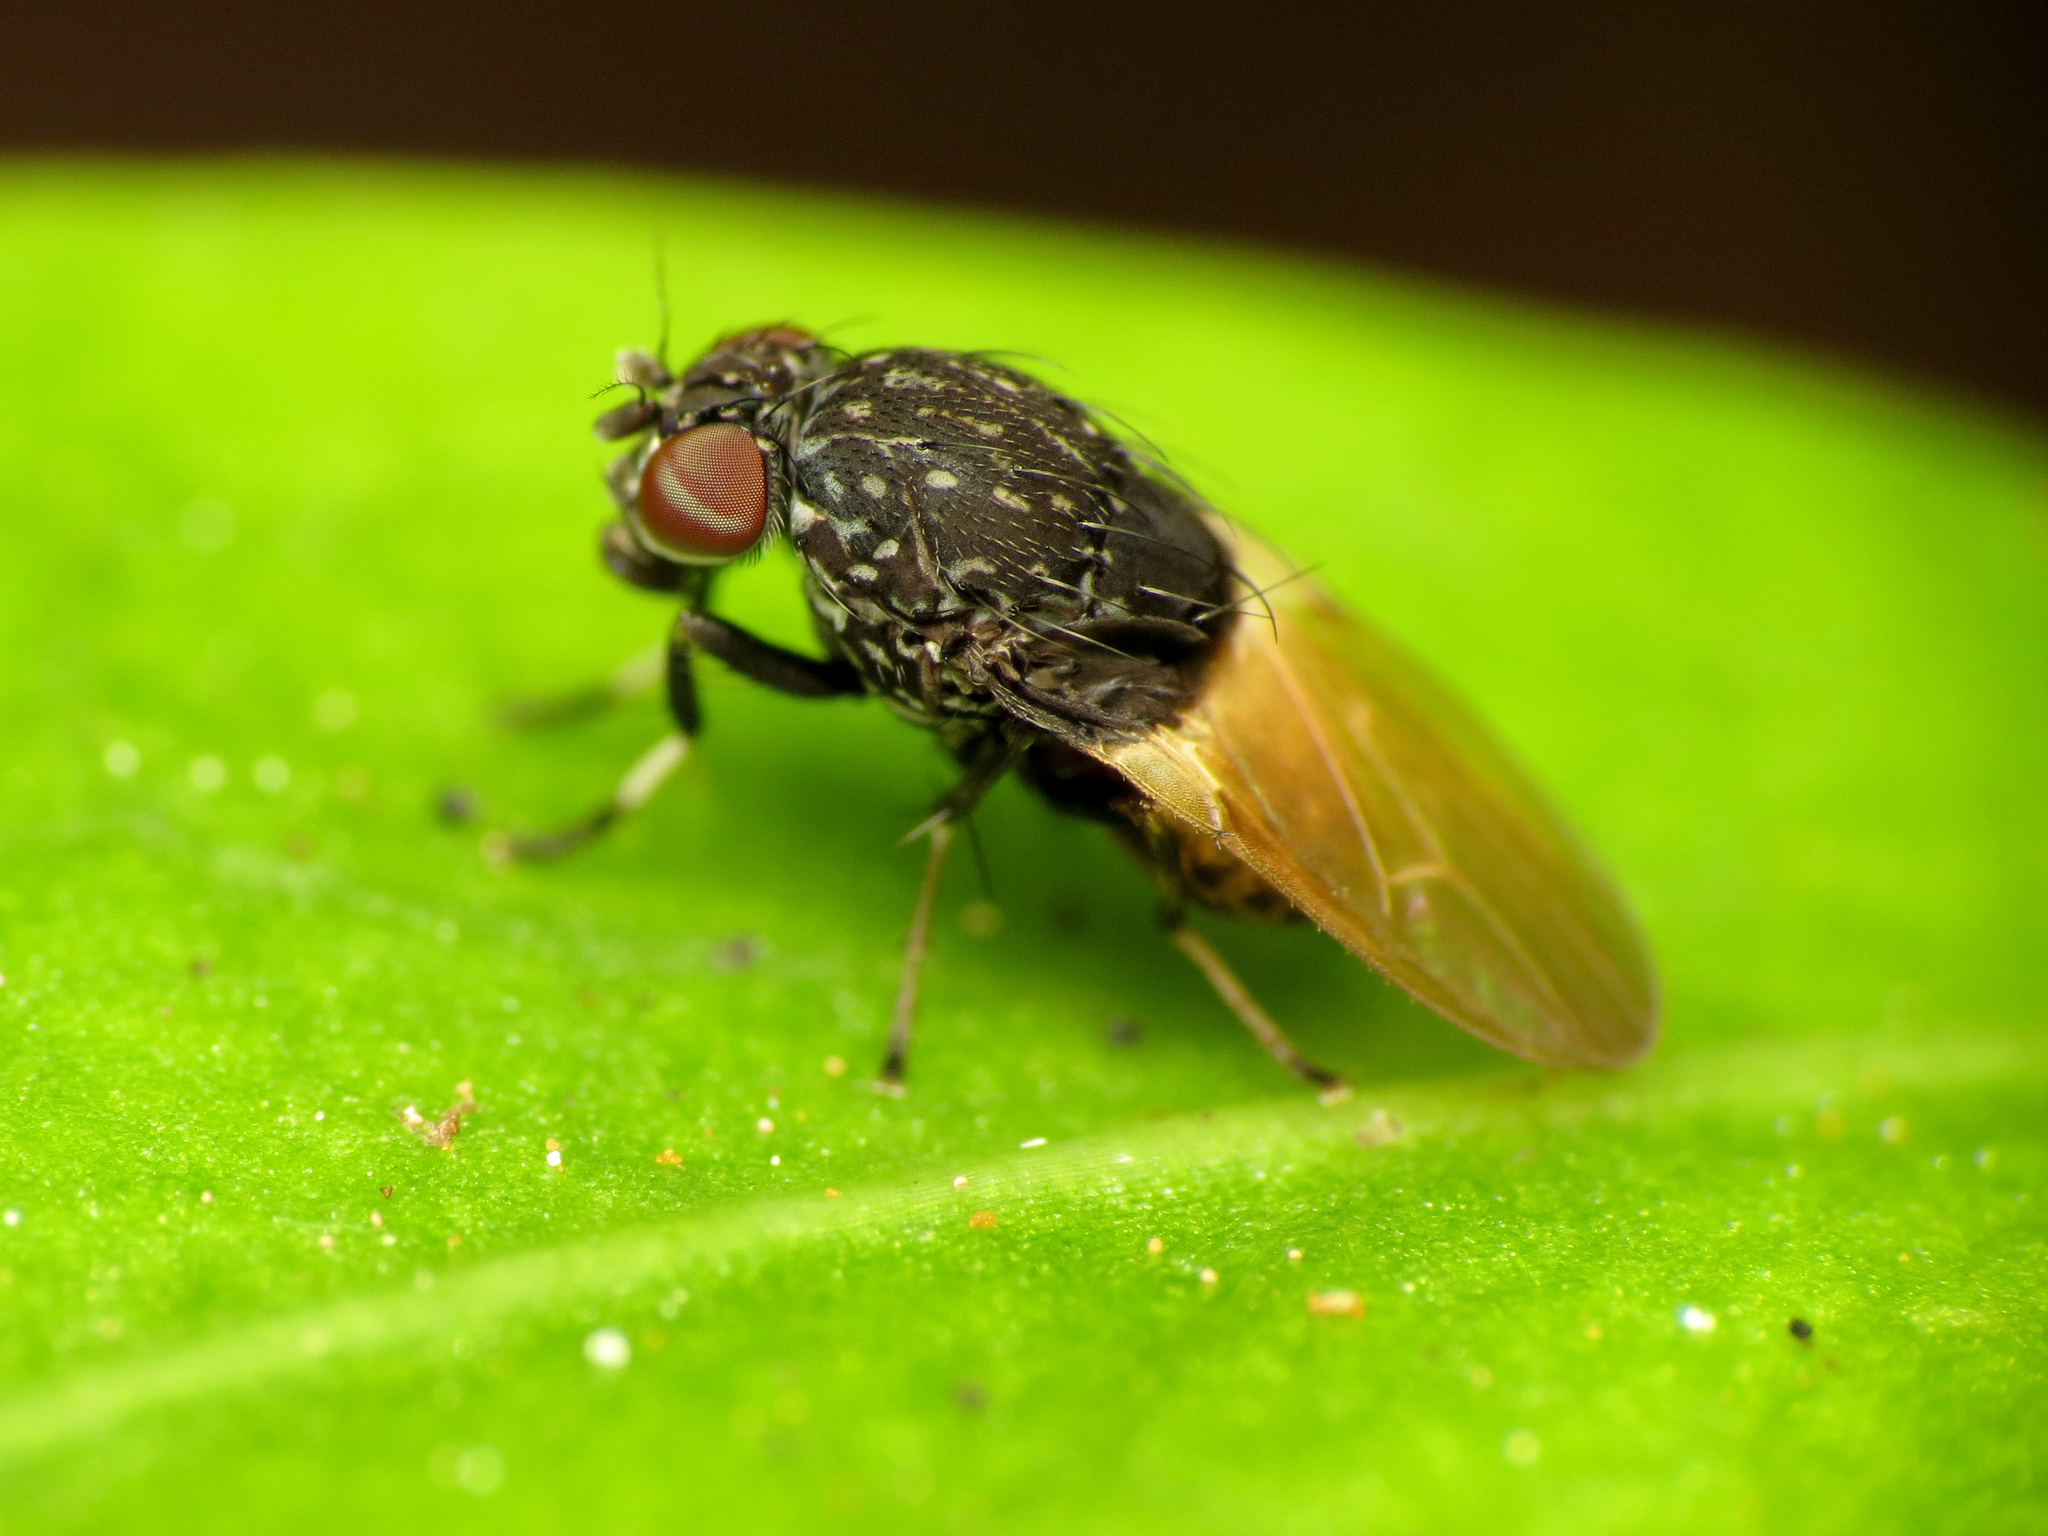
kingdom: Animalia
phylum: Arthropoda
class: Insecta
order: Diptera
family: Heleomyzidae
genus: Allophylina
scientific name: Allophylina albitarsis
